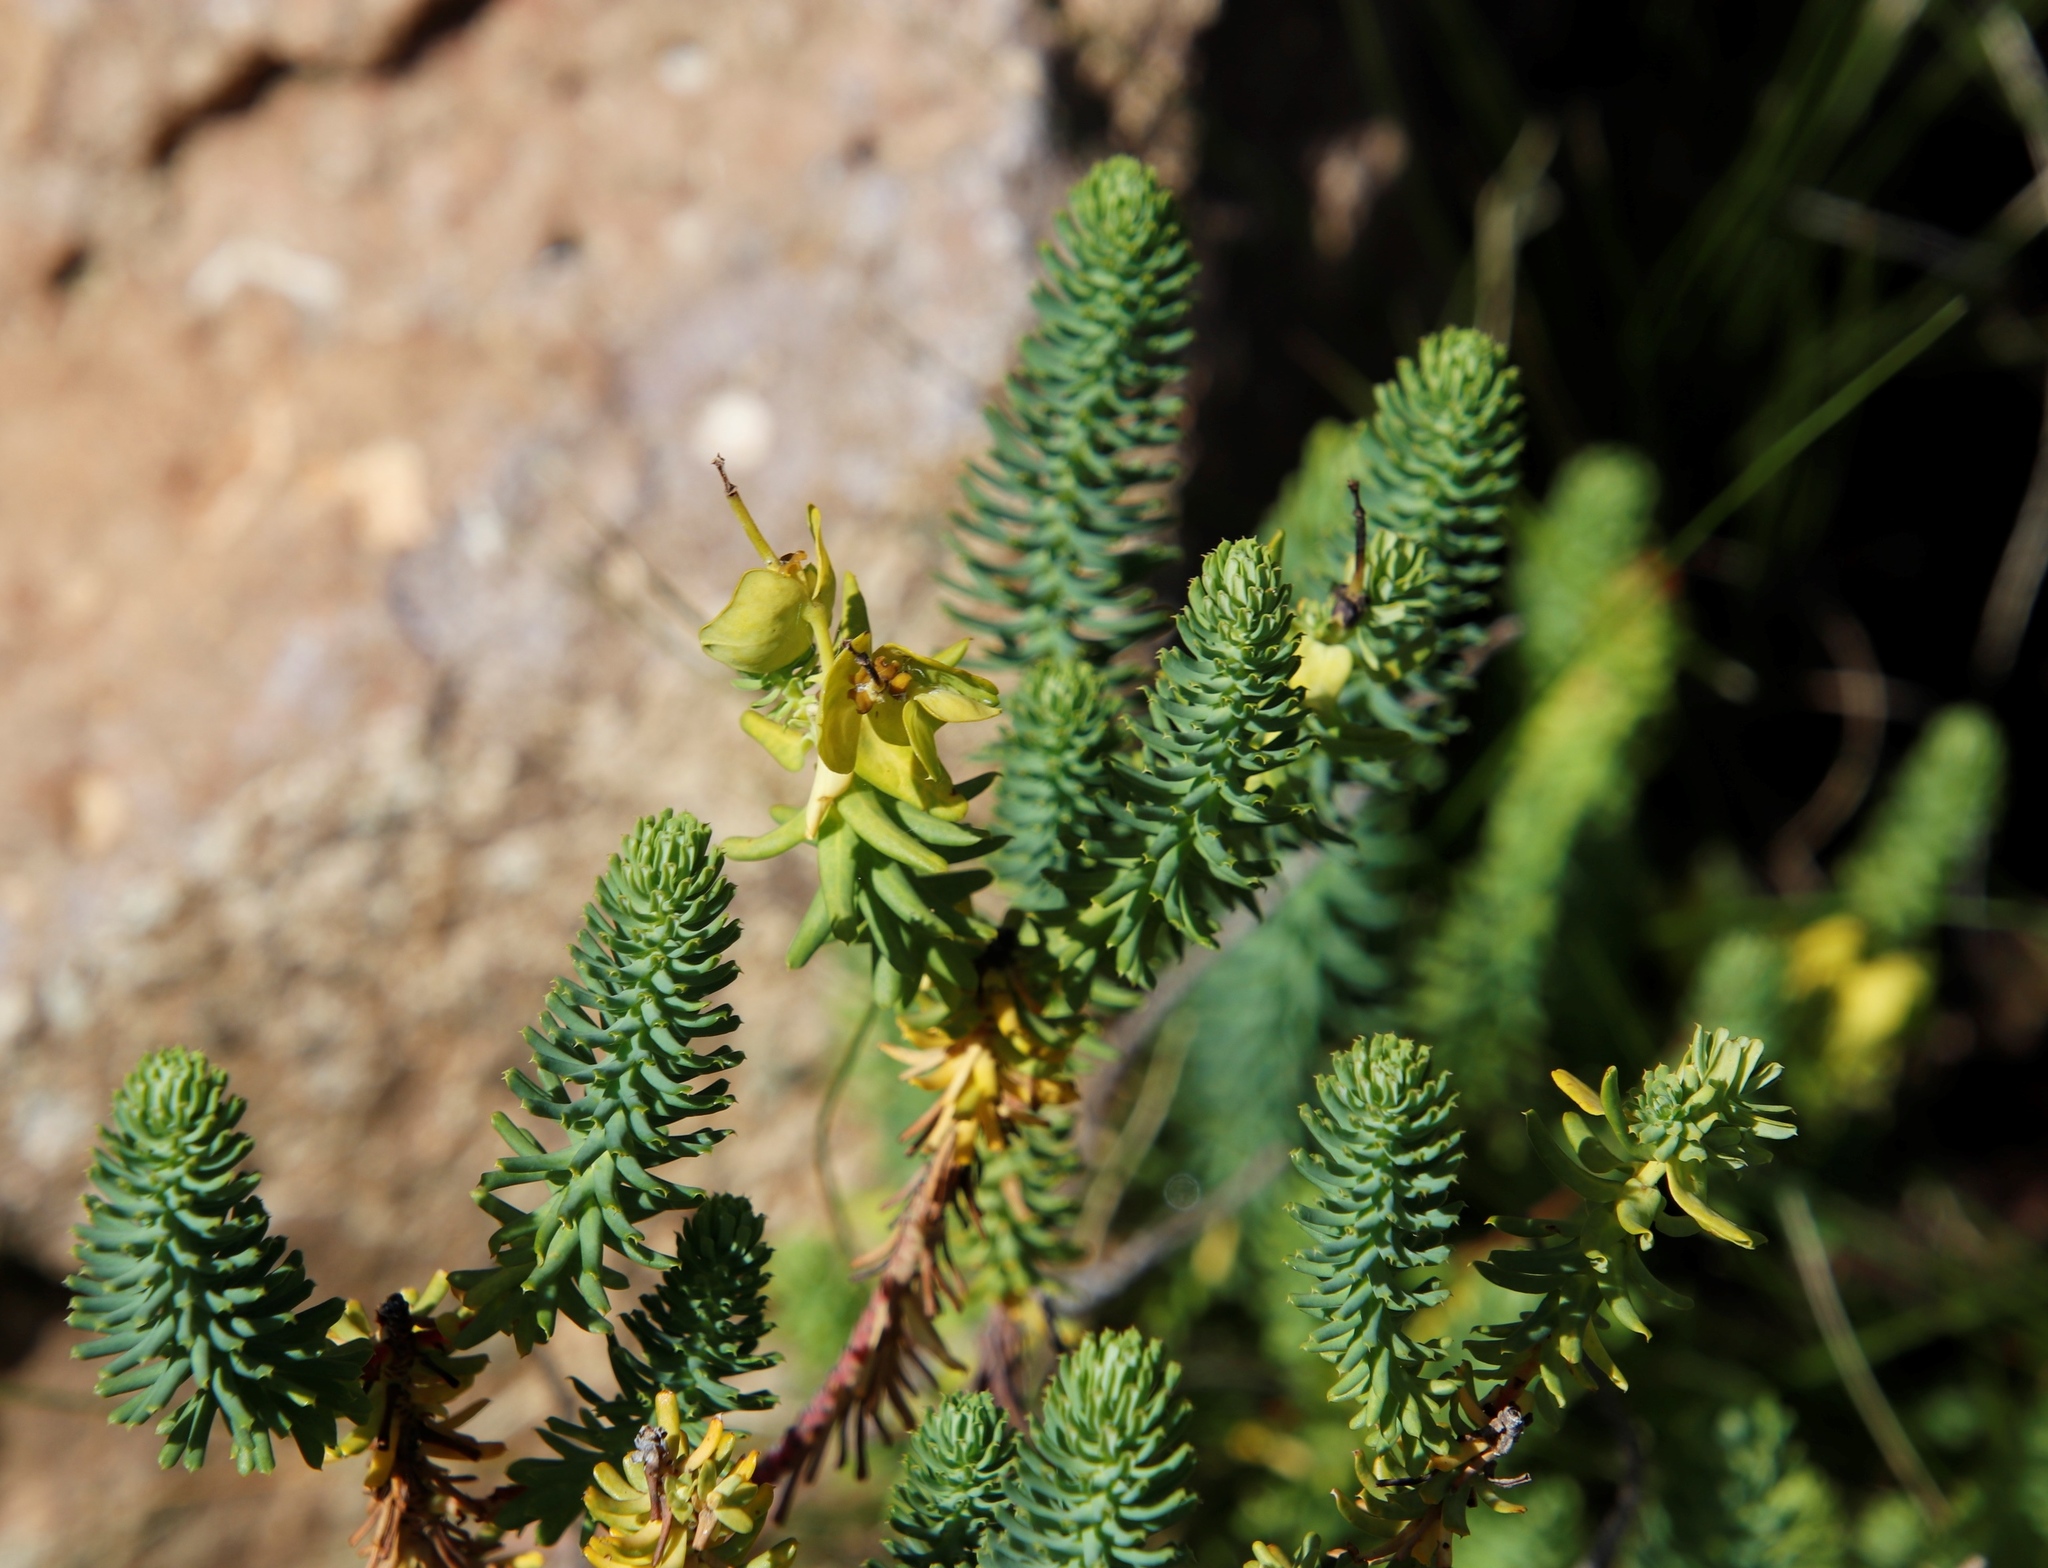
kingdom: Plantae
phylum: Tracheophyta
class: Magnoliopsida
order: Malpighiales
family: Euphorbiaceae
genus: Euphorbia
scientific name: Euphorbia natalensis
